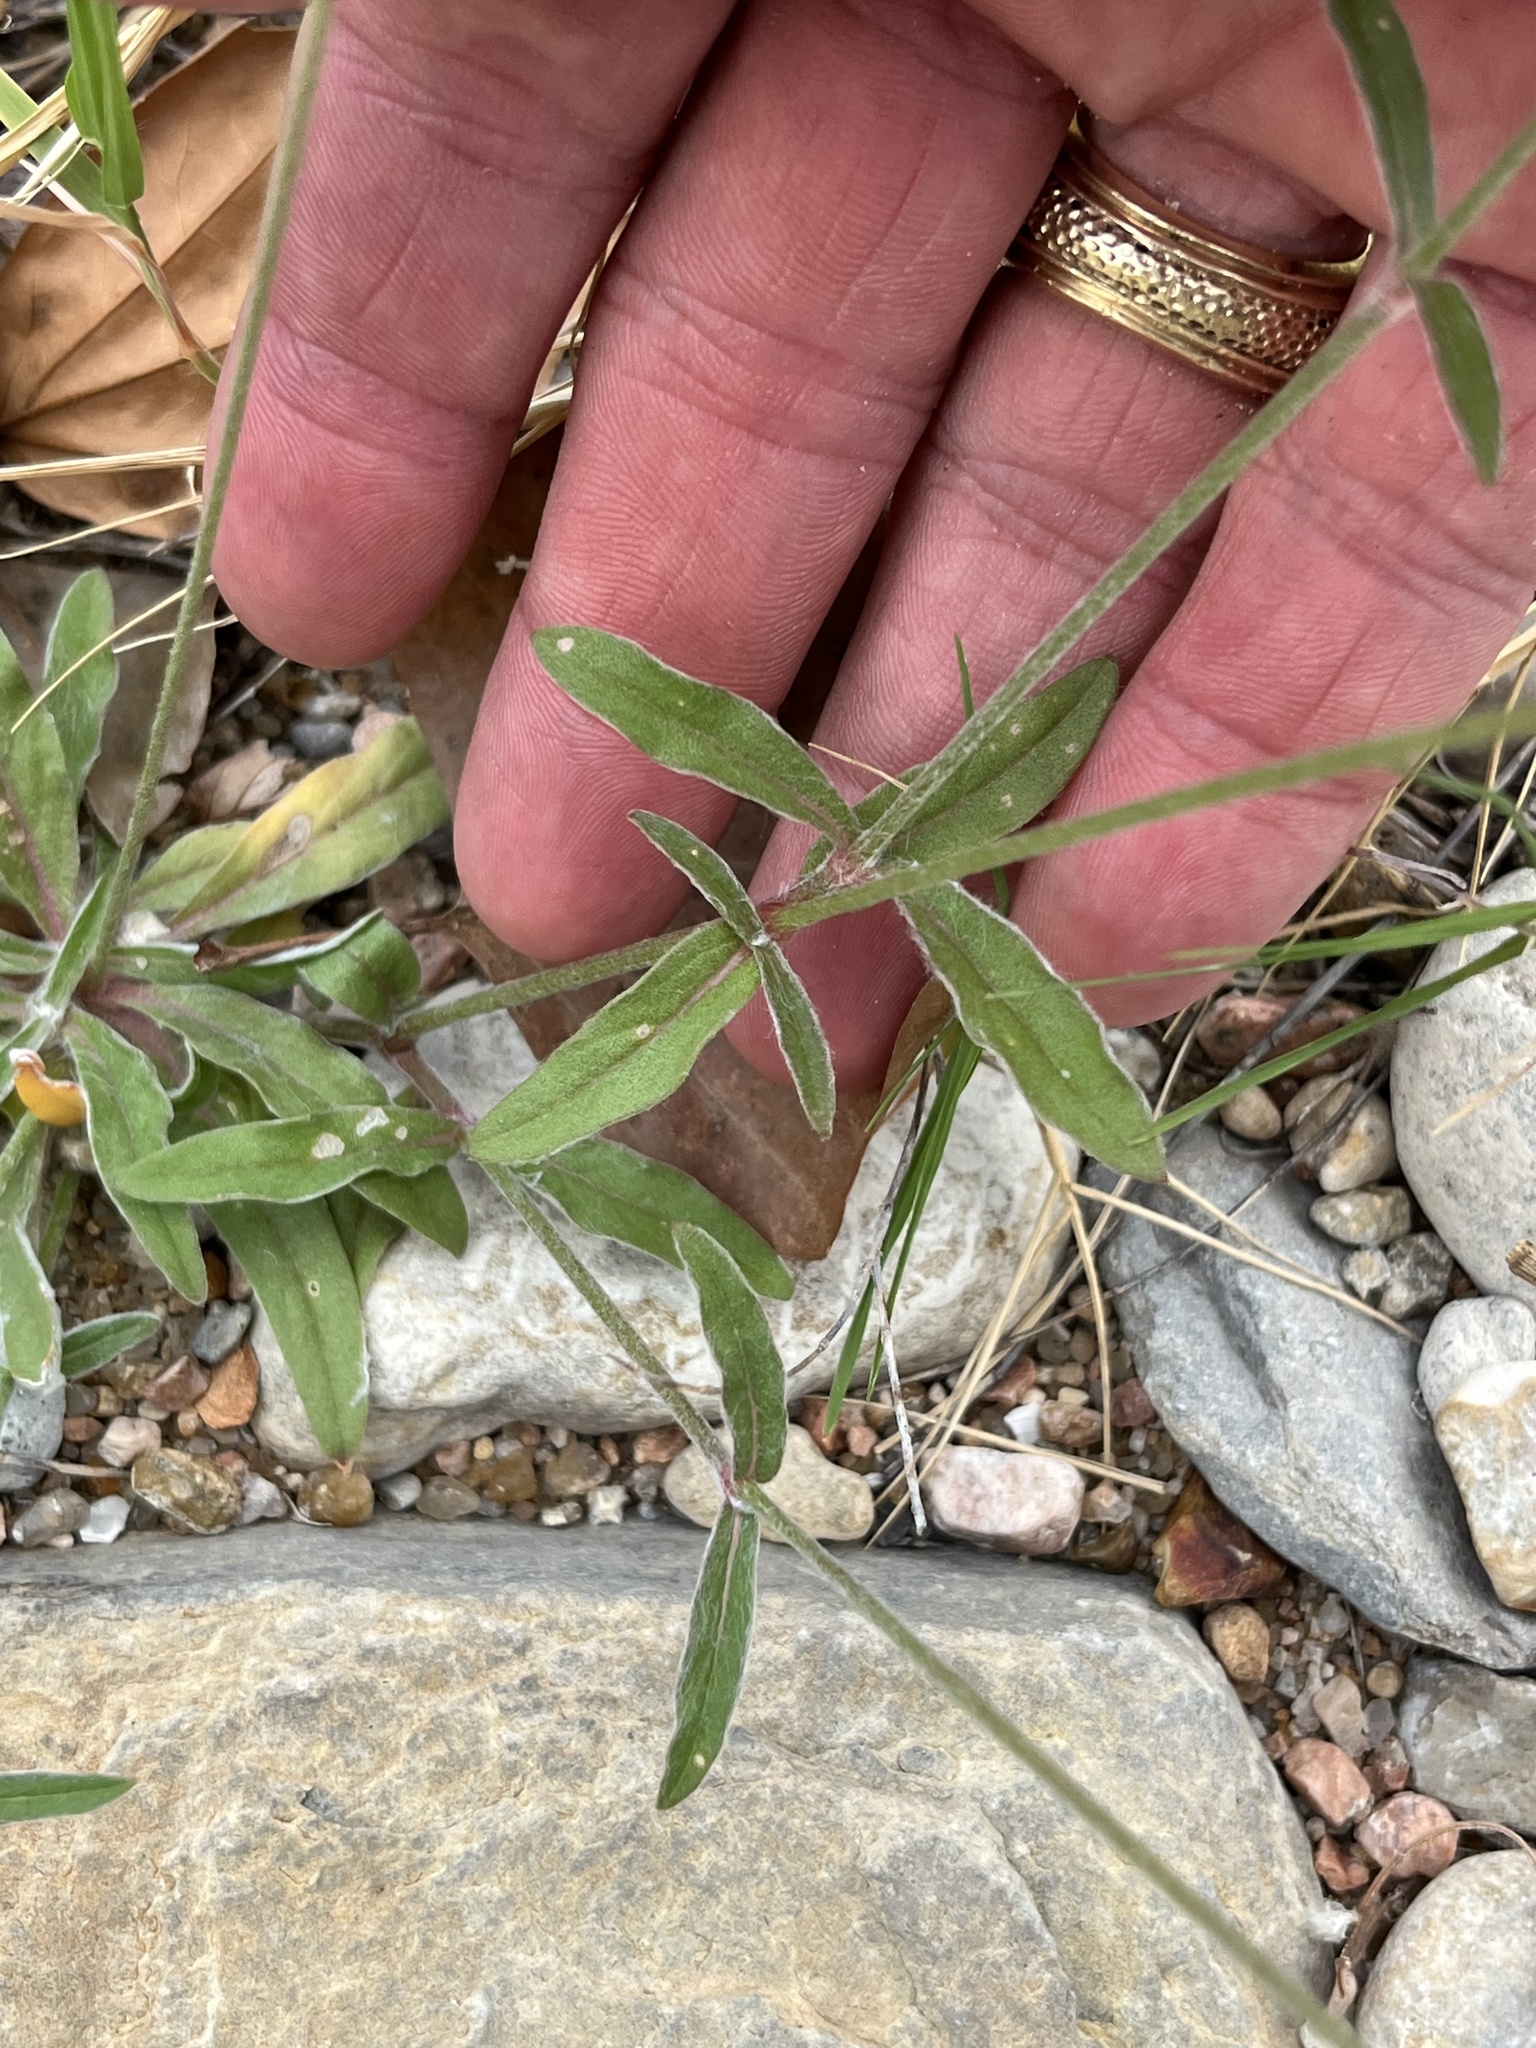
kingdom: Plantae
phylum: Tracheophyta
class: Magnoliopsida
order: Caryophyllales
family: Amaranthaceae
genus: Froelichia
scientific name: Froelichia gracilis
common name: Slender cottonweed
